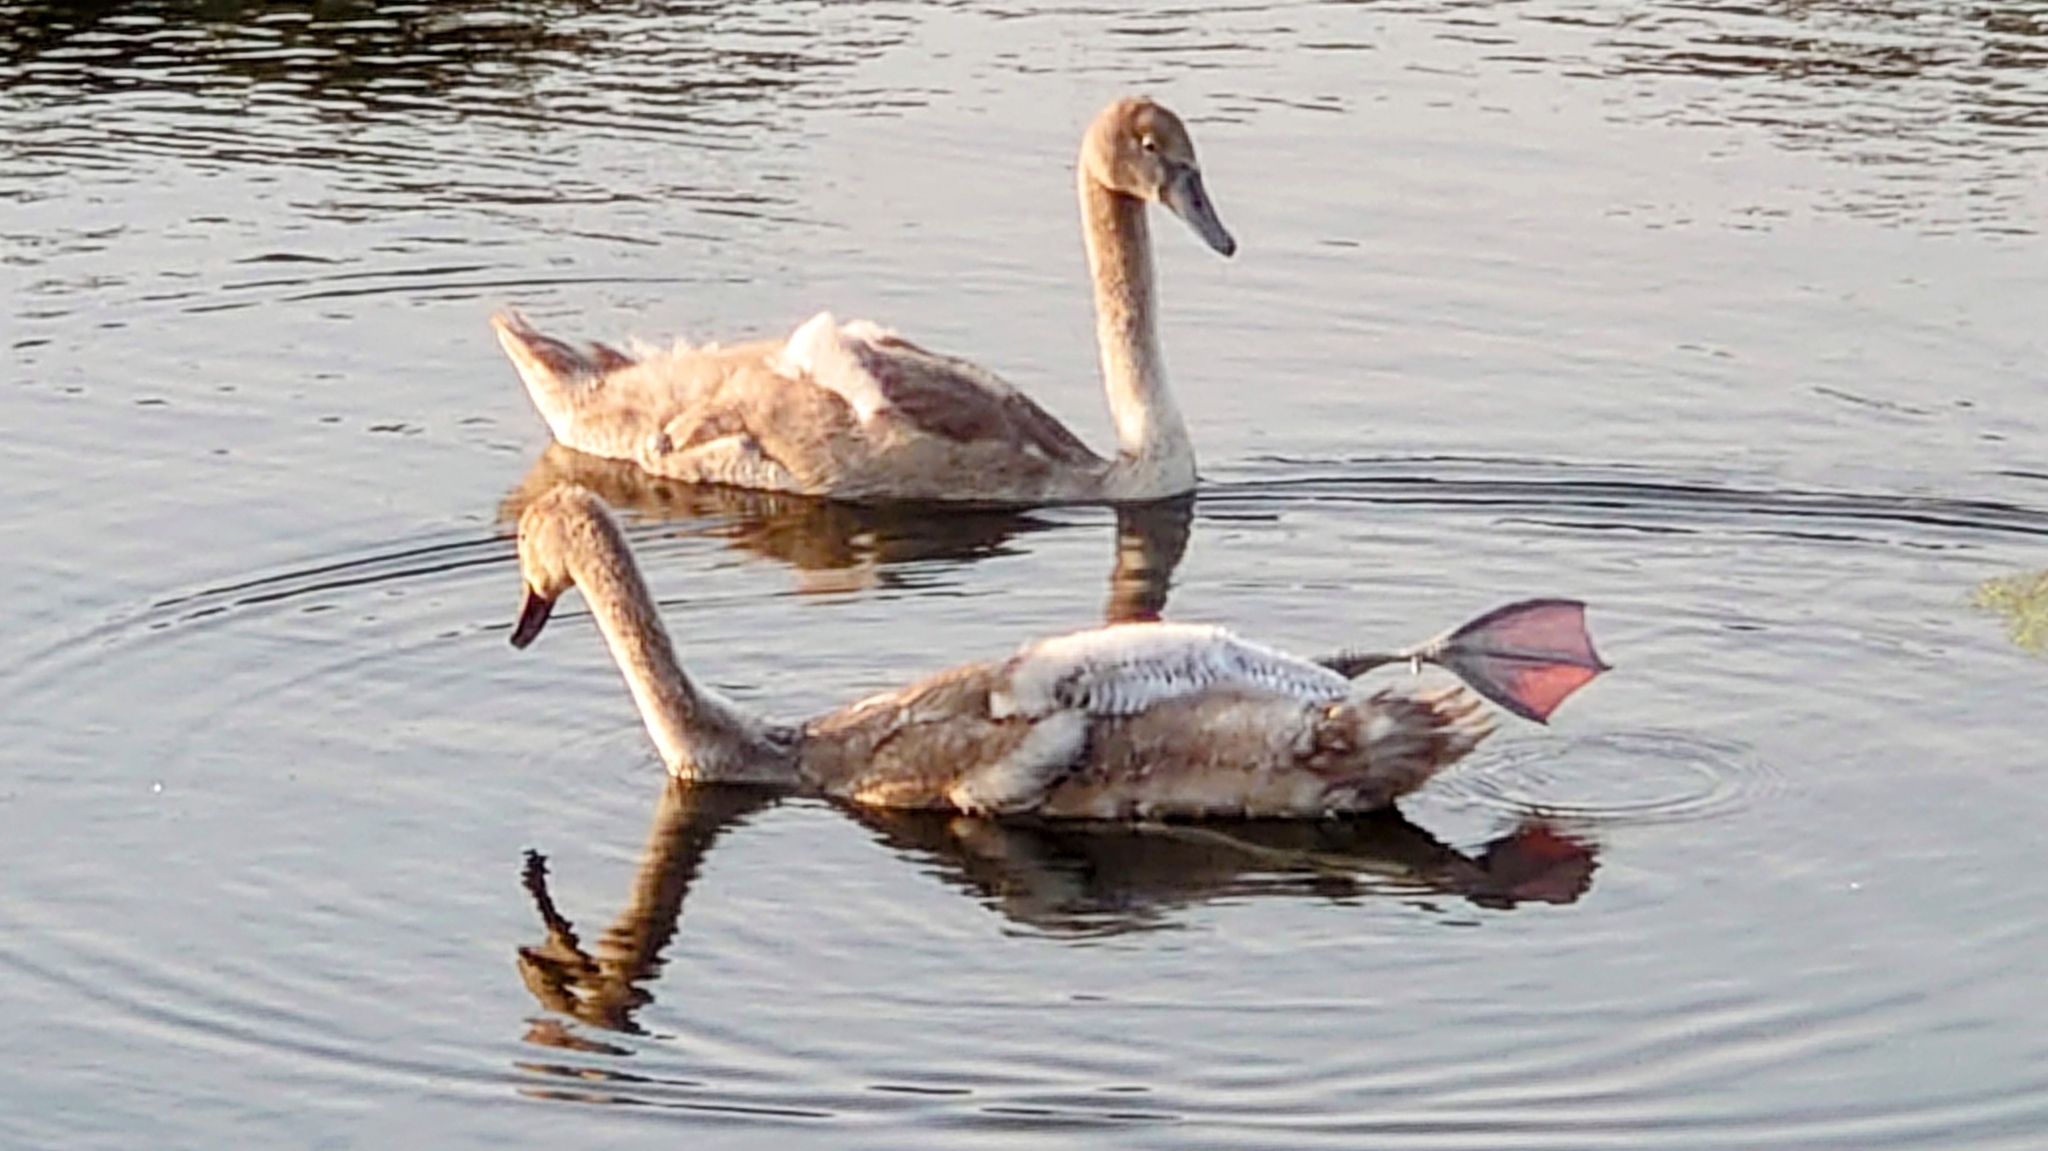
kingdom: Animalia
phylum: Chordata
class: Aves
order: Anseriformes
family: Anatidae
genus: Cygnus
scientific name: Cygnus olor
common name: Mute swan
